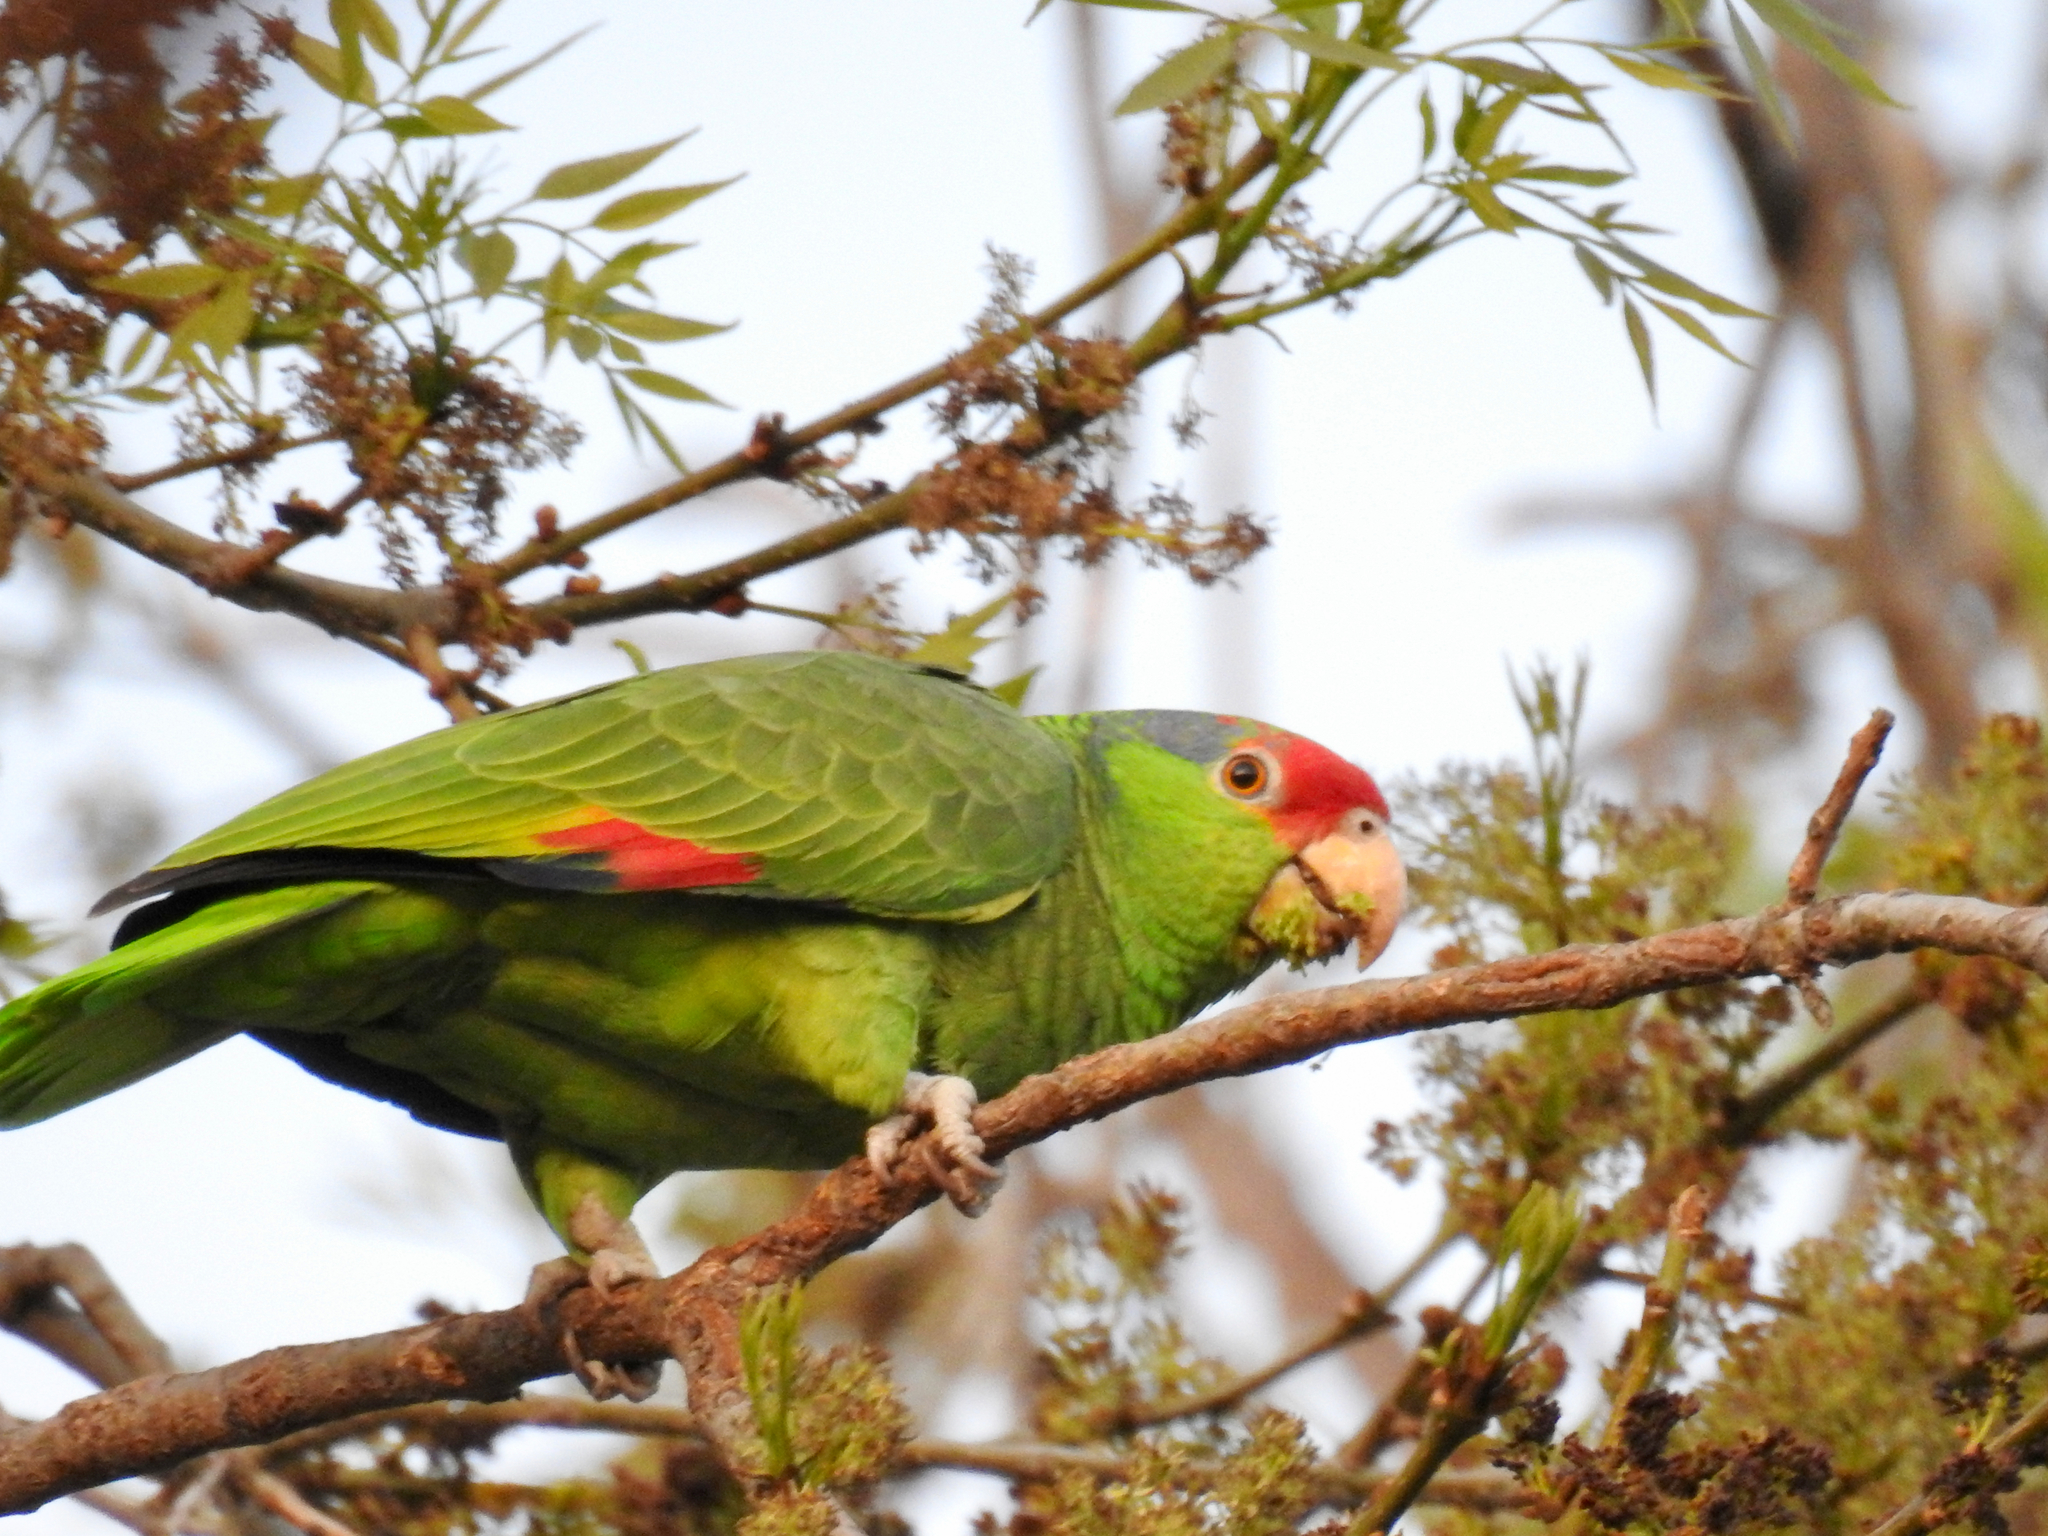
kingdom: Animalia
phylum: Chordata
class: Aves
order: Psittaciformes
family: Psittacidae
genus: Amazona
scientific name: Amazona viridigenalis
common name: Red-crowned amazon
